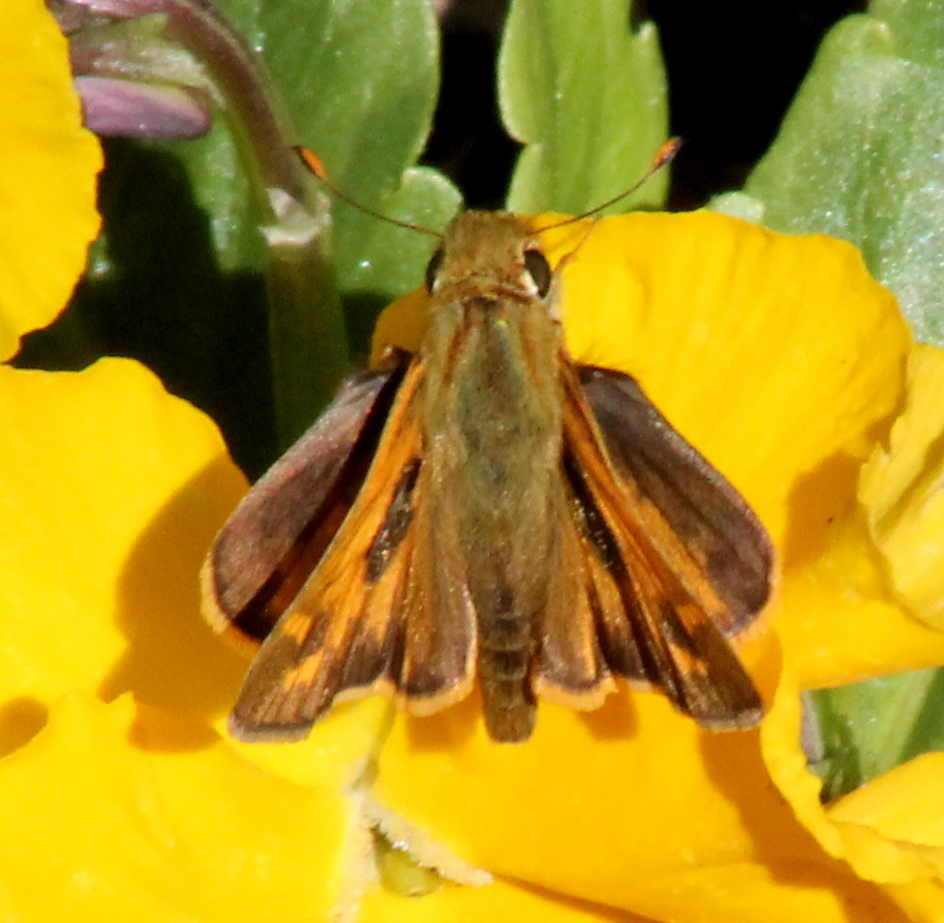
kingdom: Animalia
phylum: Arthropoda
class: Insecta
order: Lepidoptera
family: Hesperiidae
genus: Atalopedes
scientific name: Atalopedes
